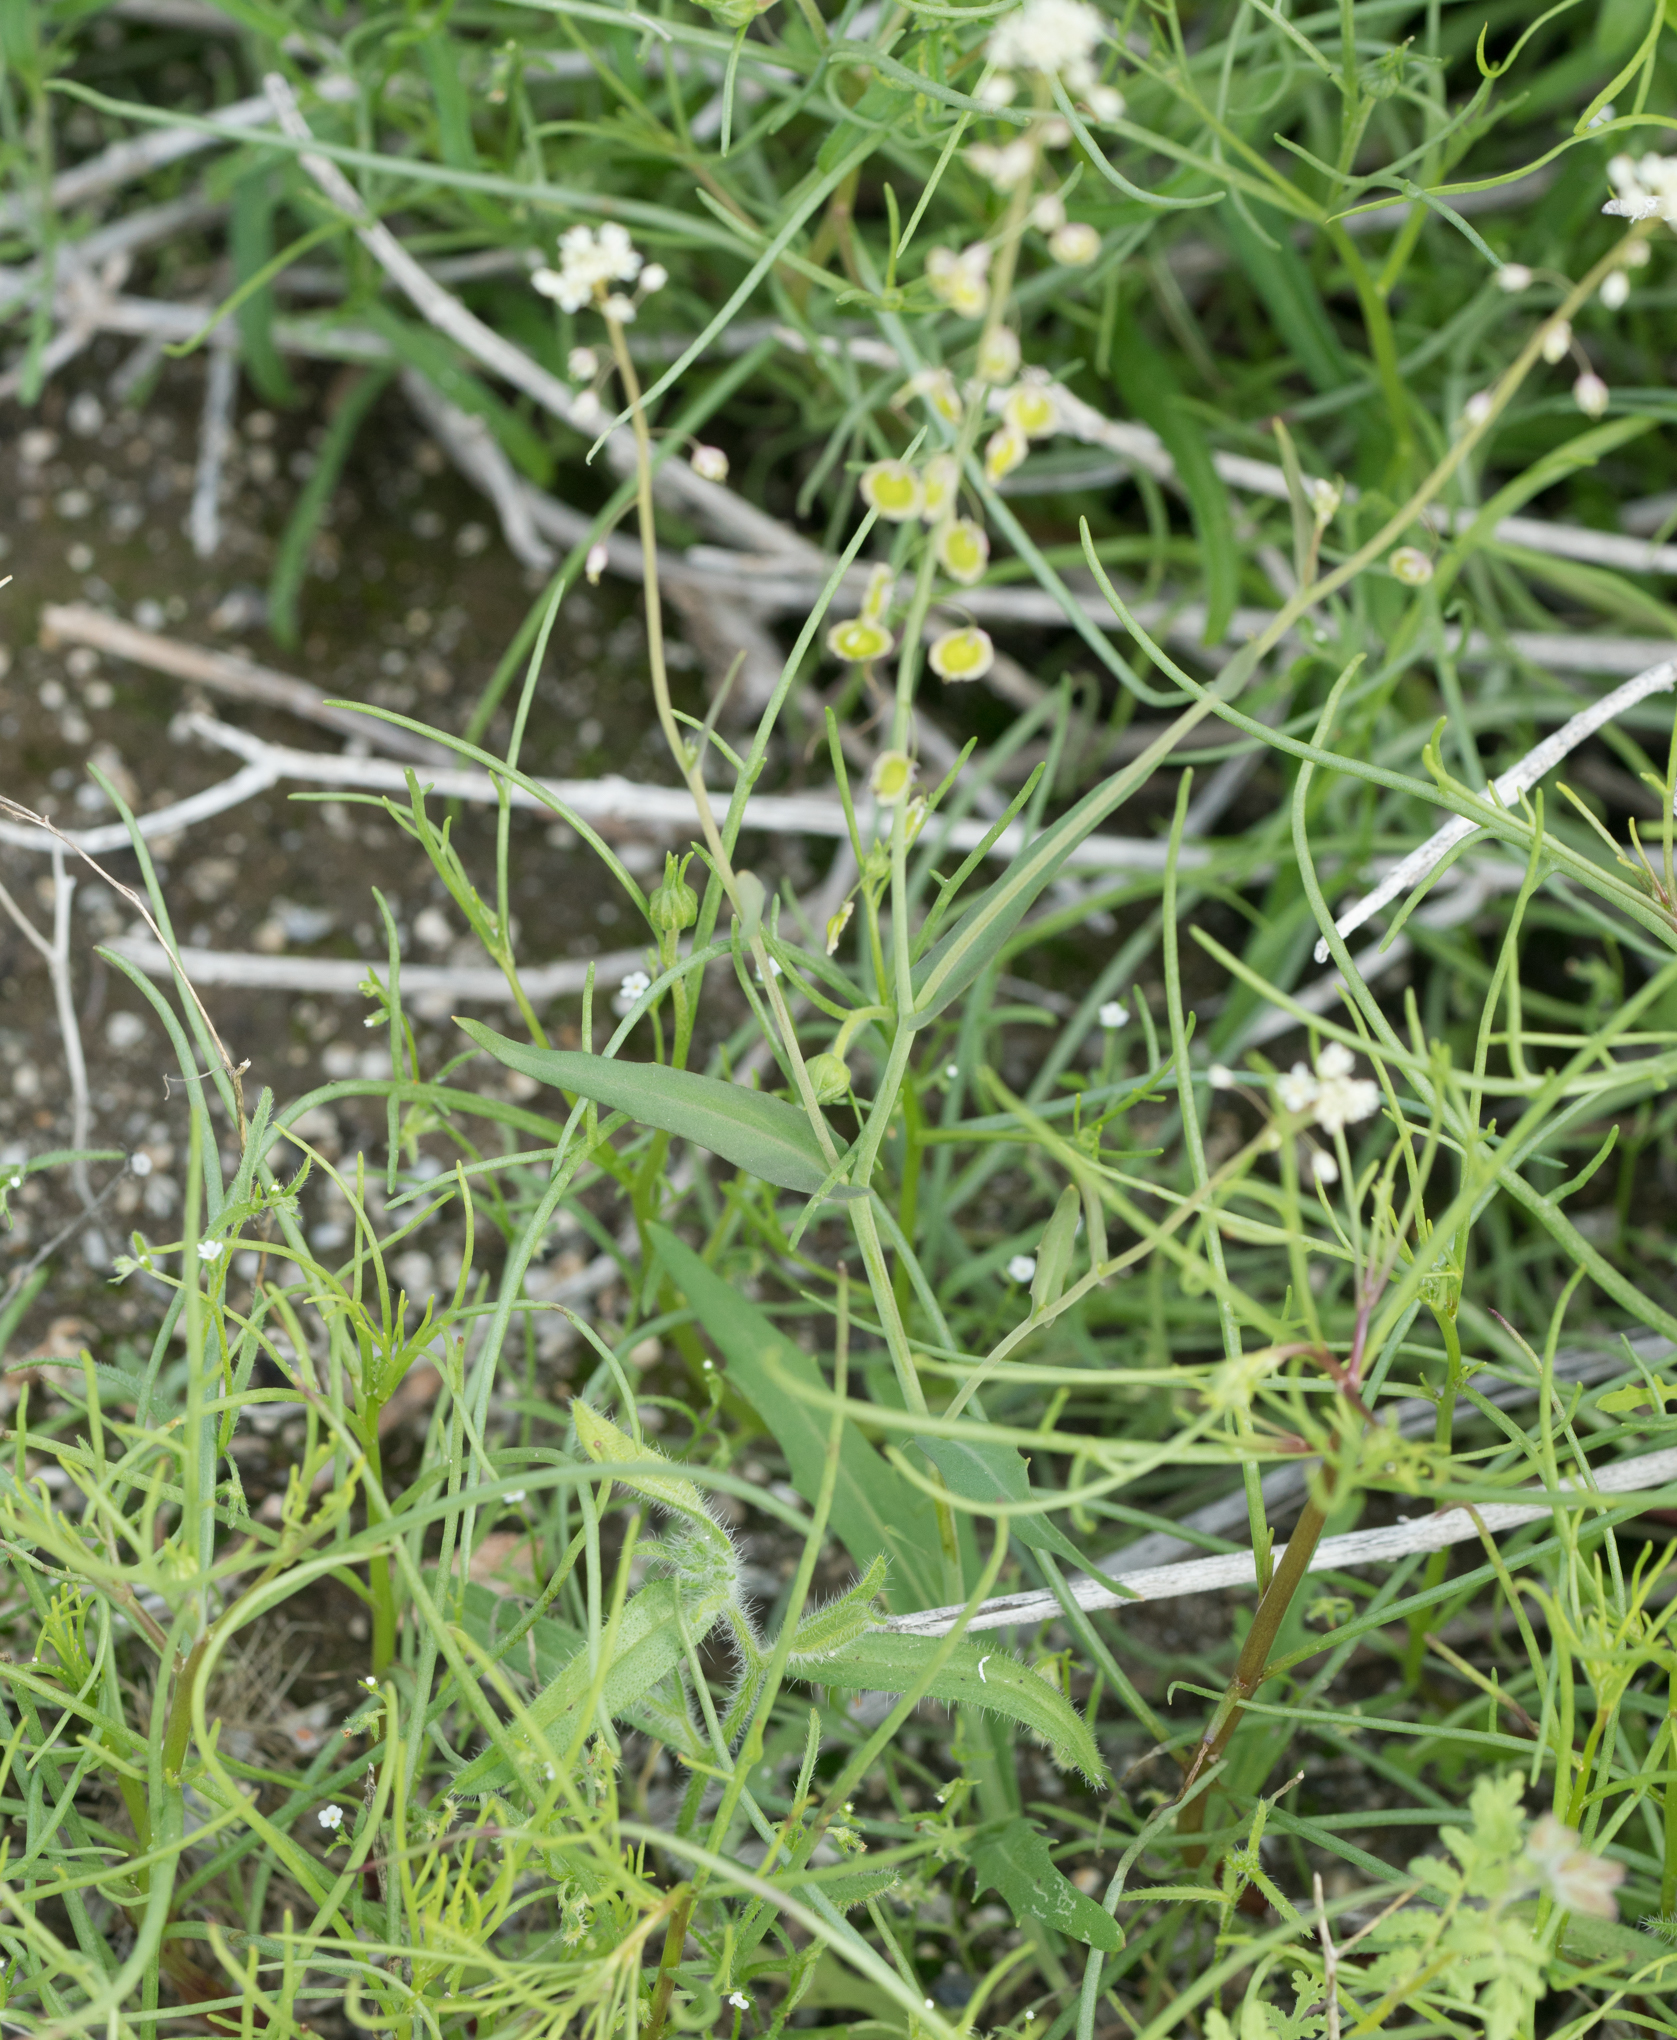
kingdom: Plantae
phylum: Tracheophyta
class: Magnoliopsida
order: Brassicales
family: Brassicaceae
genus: Thysanocarpus
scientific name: Thysanocarpus curvipes
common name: Sand fringepod
